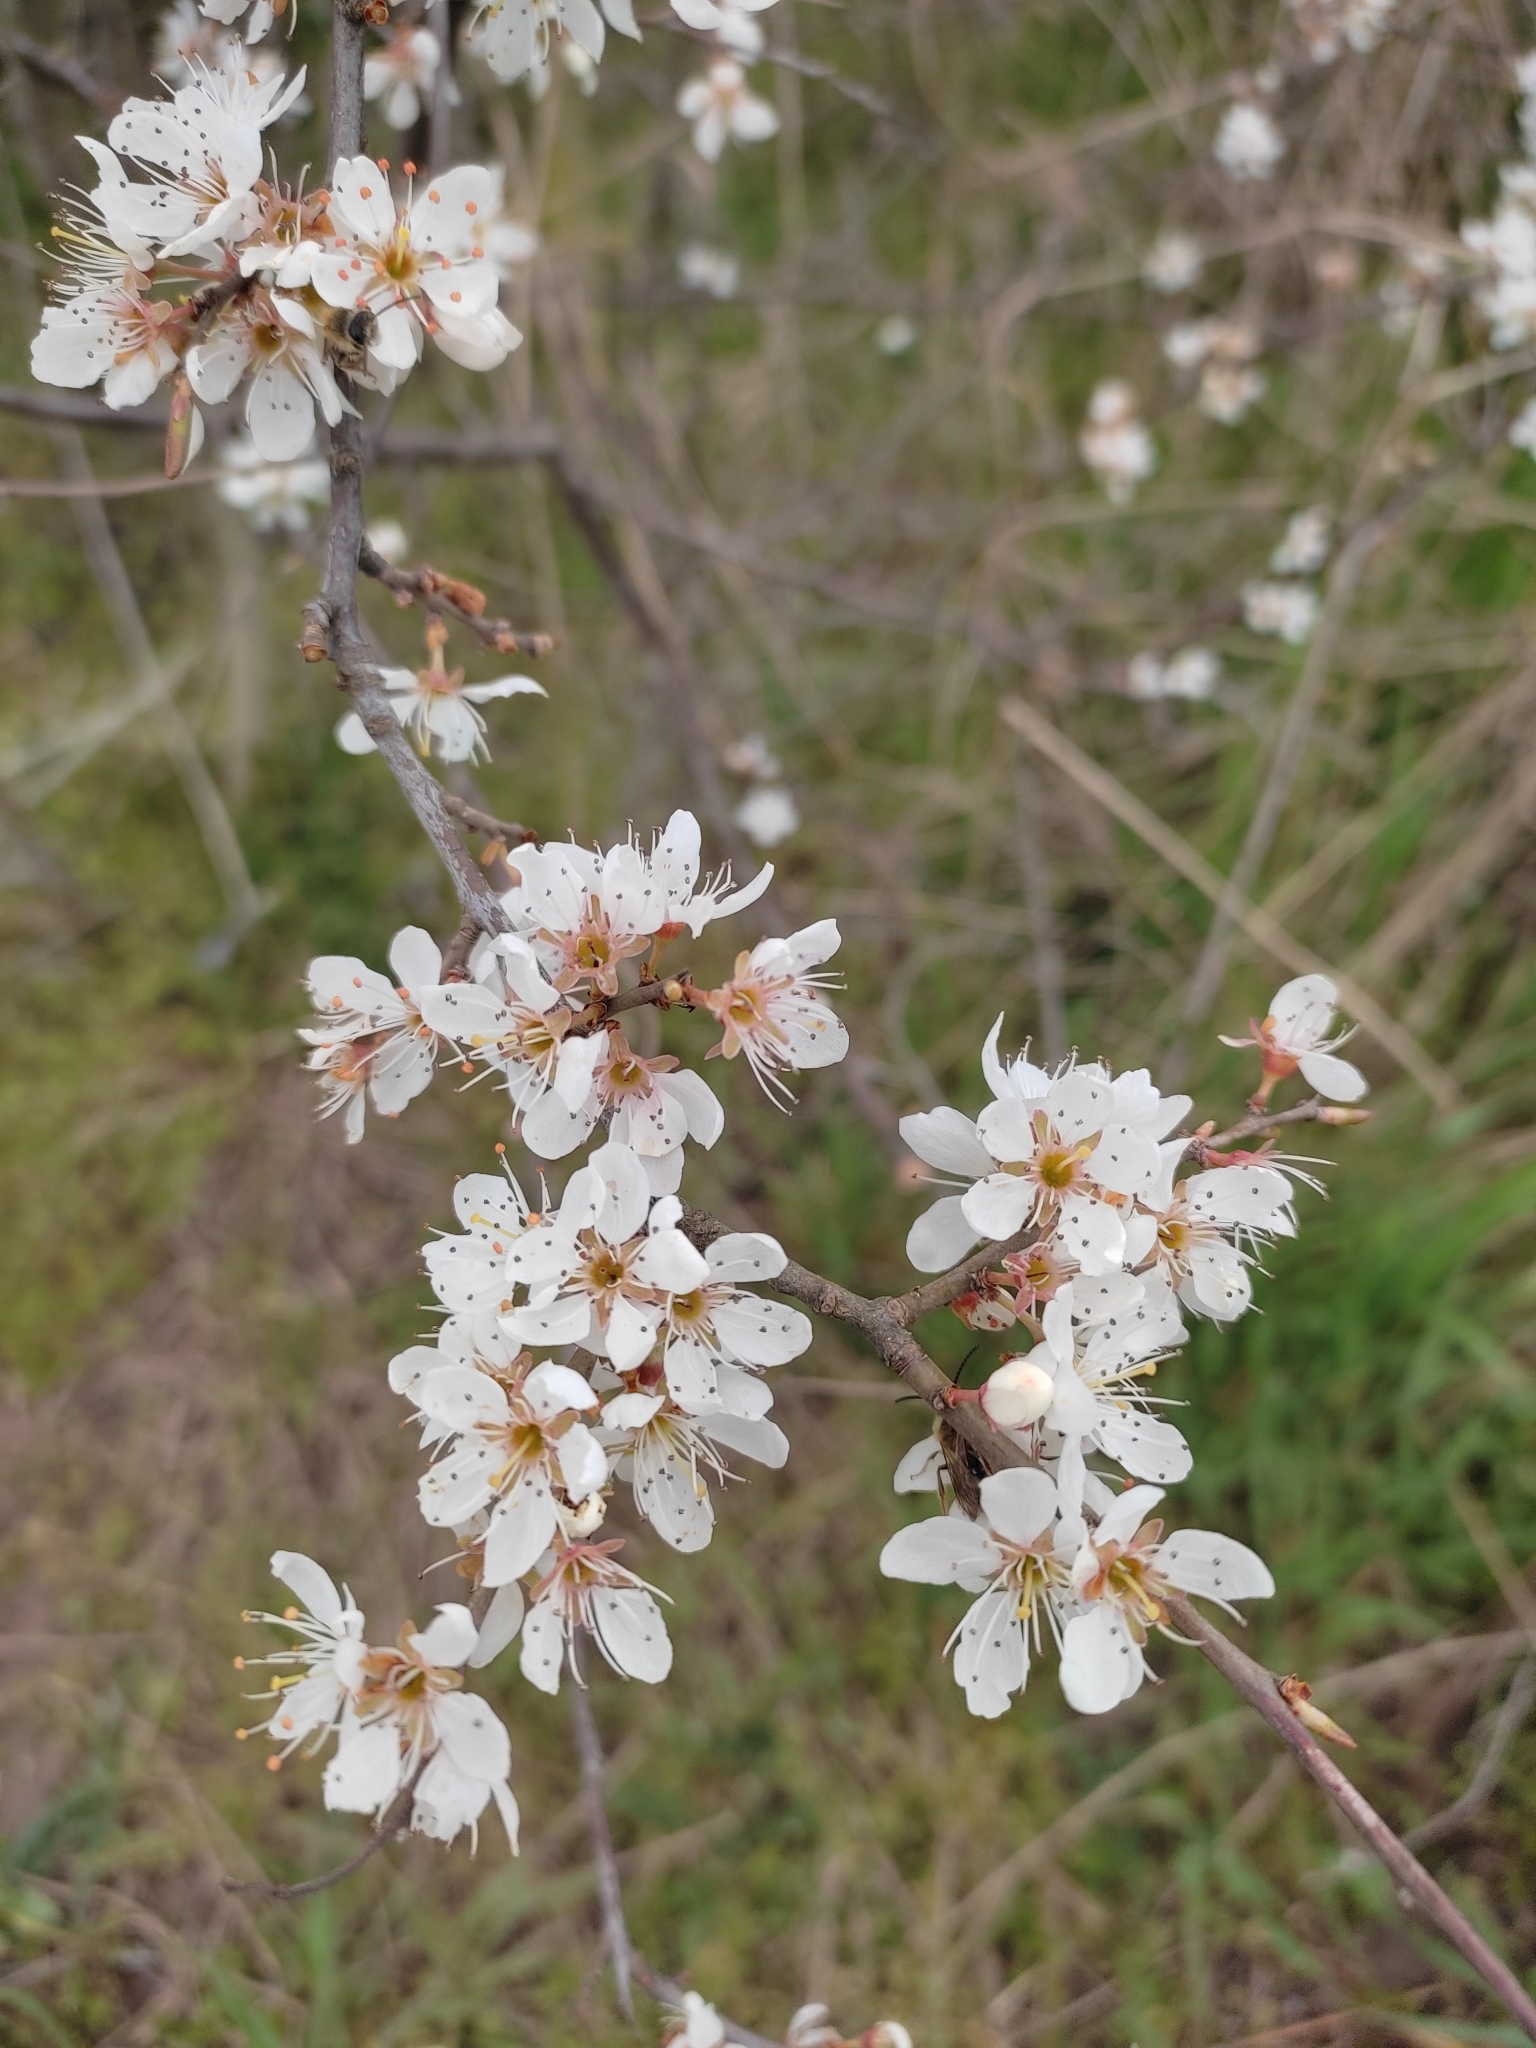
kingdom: Plantae
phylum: Tracheophyta
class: Magnoliopsida
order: Rosales
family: Rosaceae
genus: Prunus
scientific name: Prunus spinosa
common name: Blackthorn
